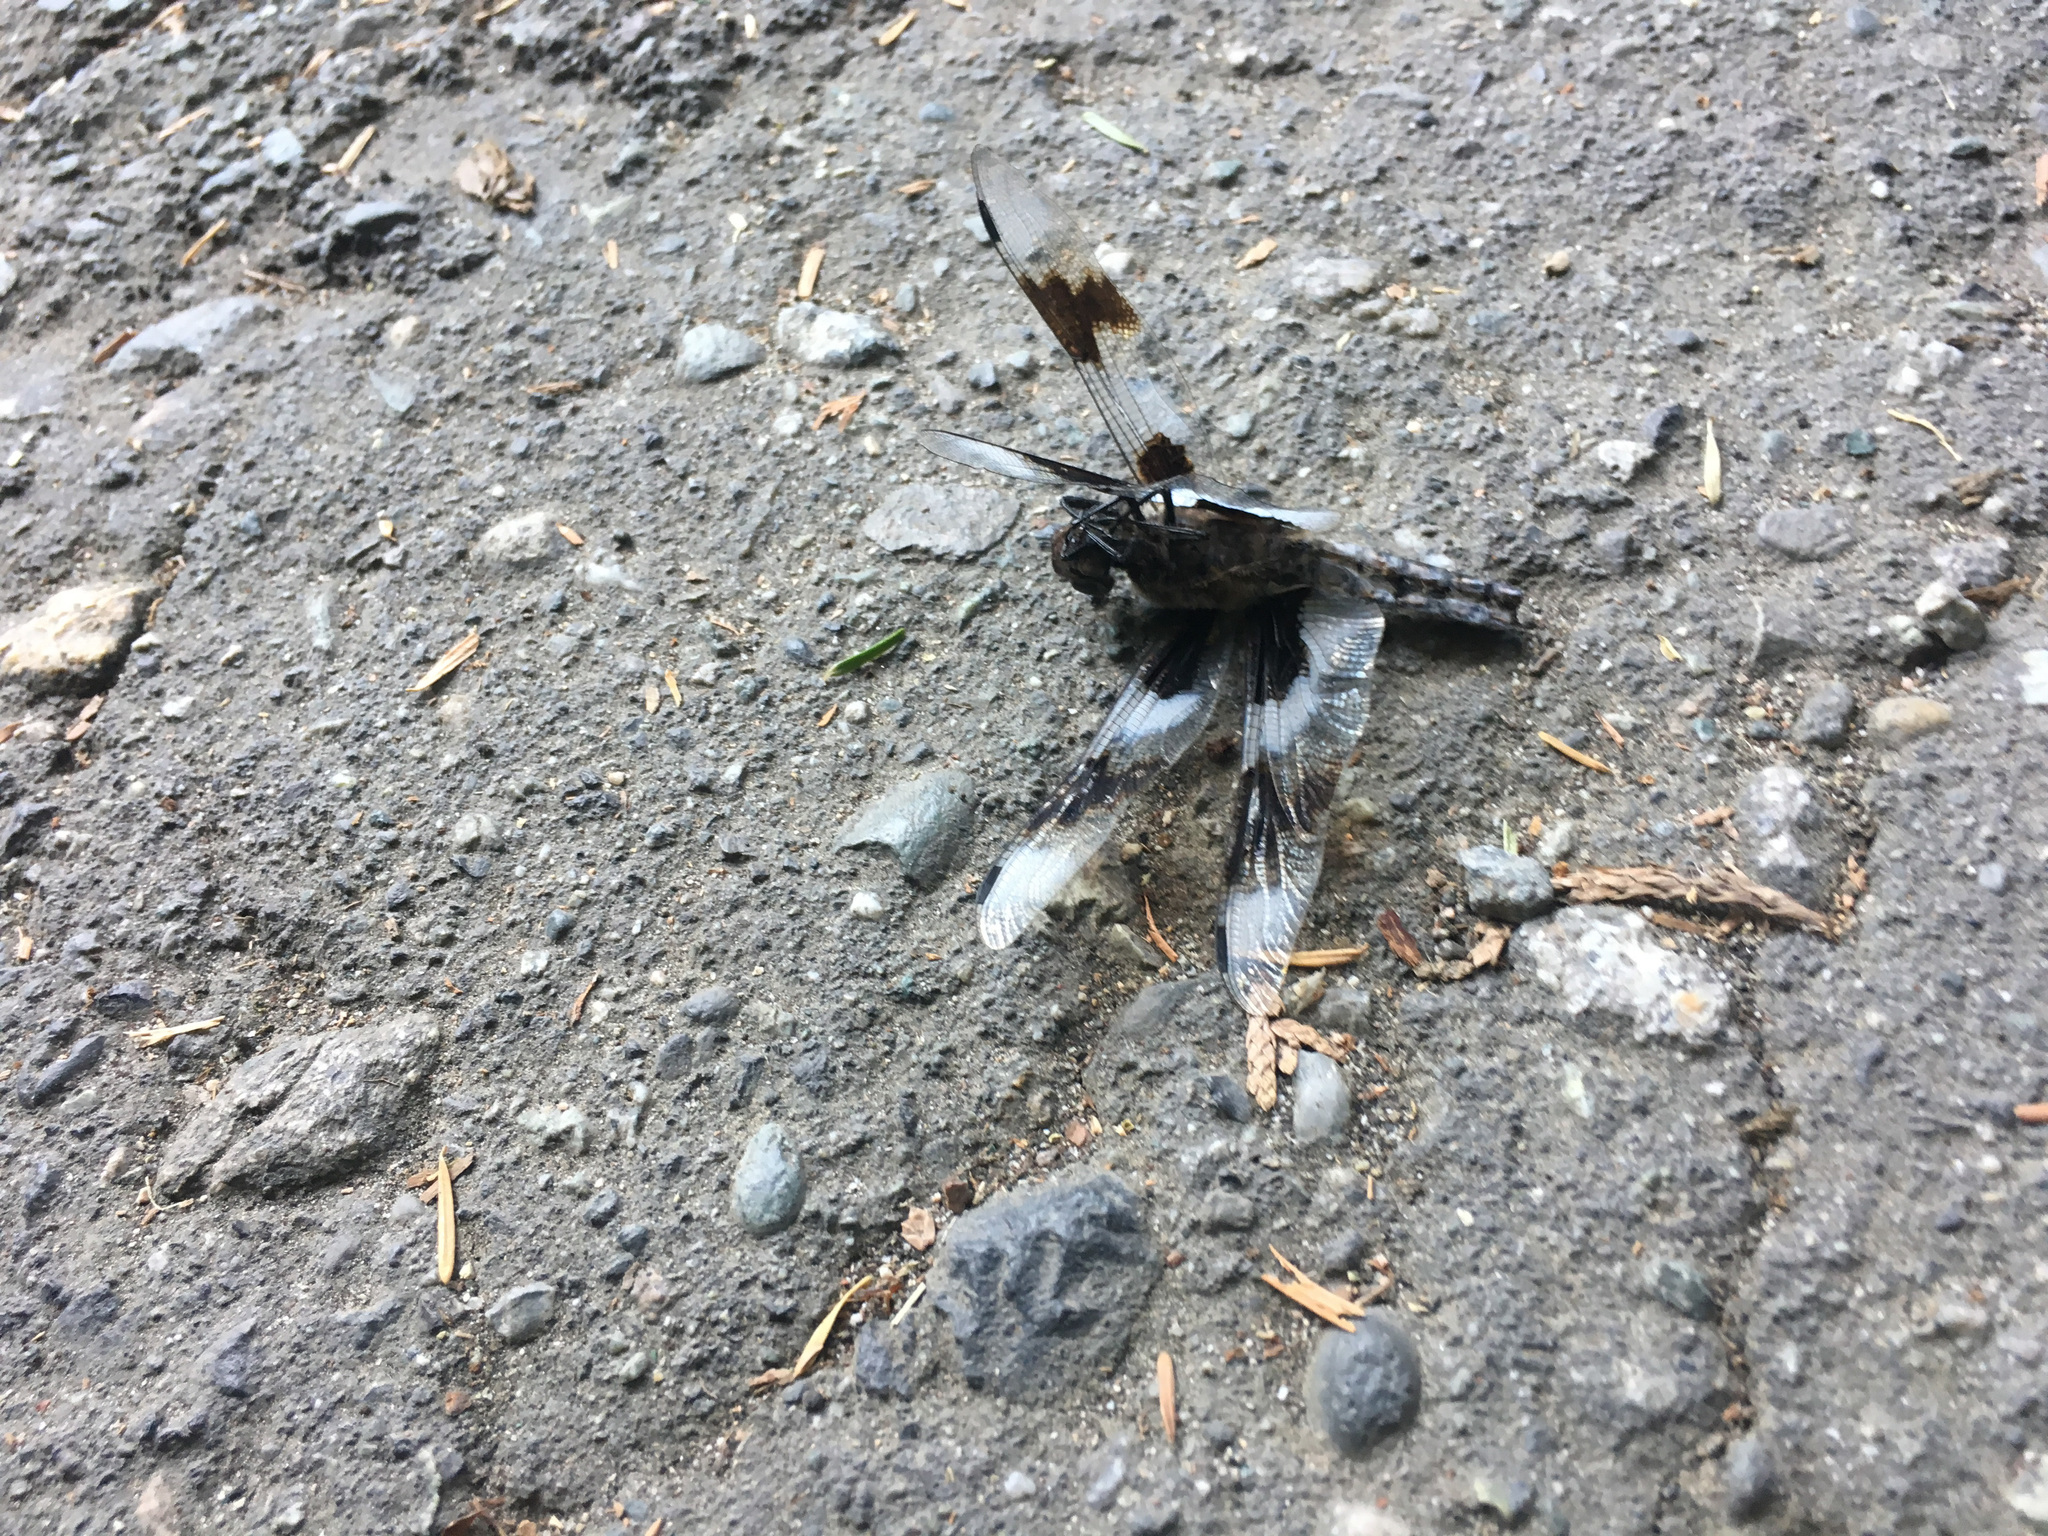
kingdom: Animalia
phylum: Arthropoda
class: Insecta
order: Odonata
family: Libellulidae
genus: Libellula
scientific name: Libellula forensis
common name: Eight-spotted skimmer
